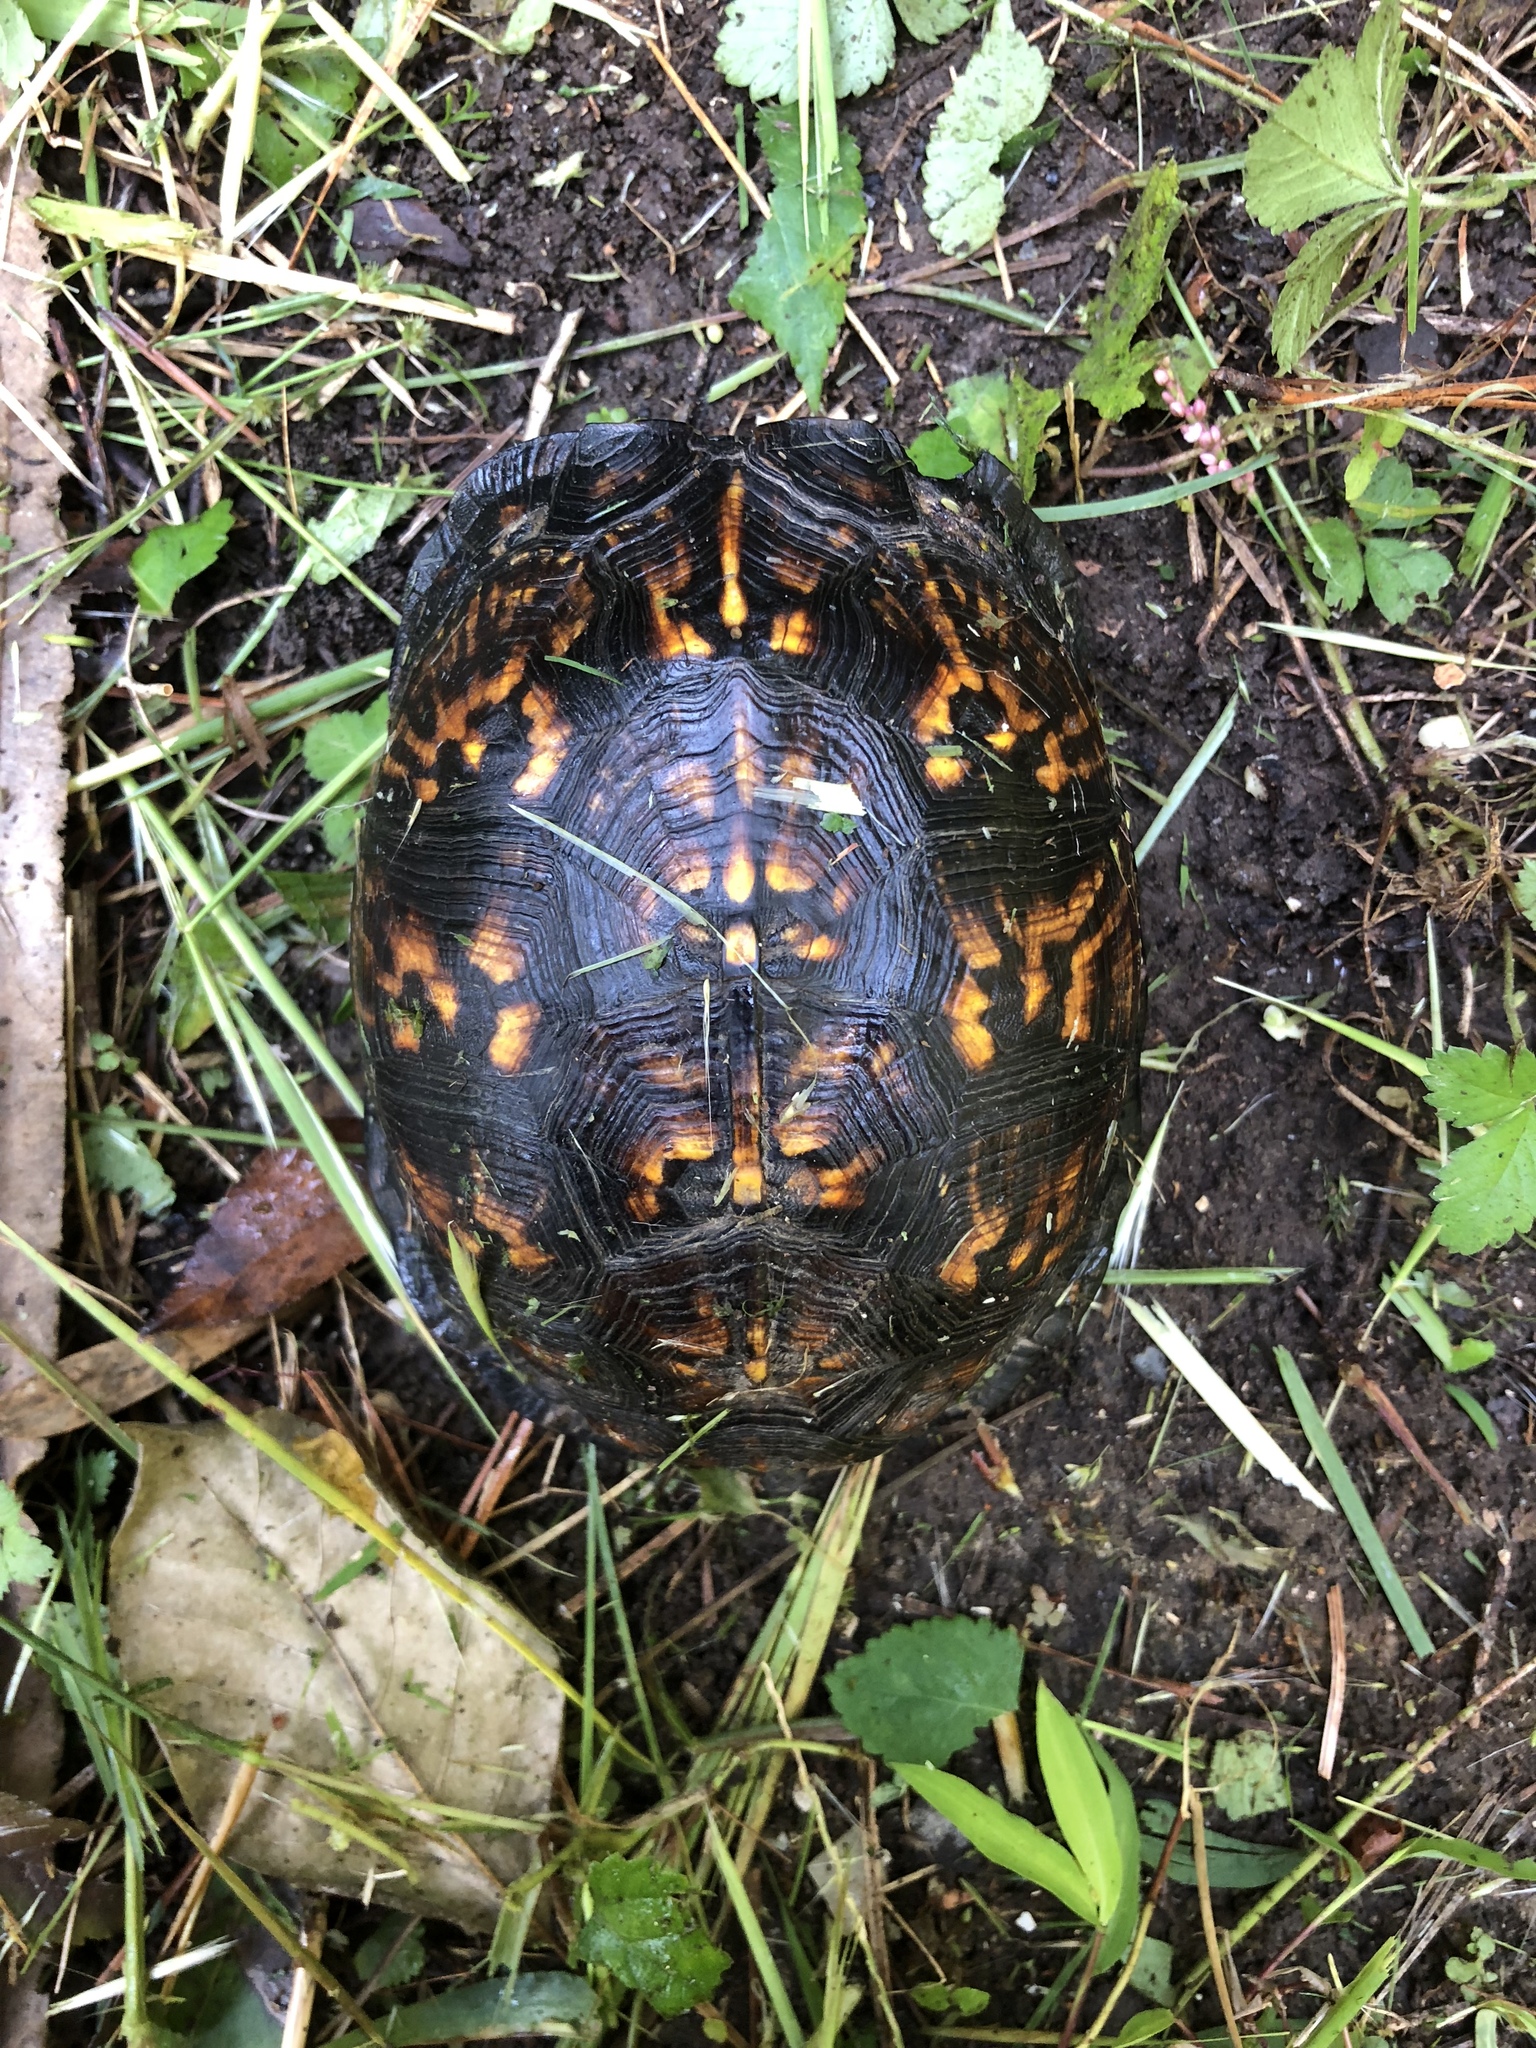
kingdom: Animalia
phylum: Chordata
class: Testudines
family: Emydidae
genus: Terrapene
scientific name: Terrapene carolina
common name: Common box turtle
